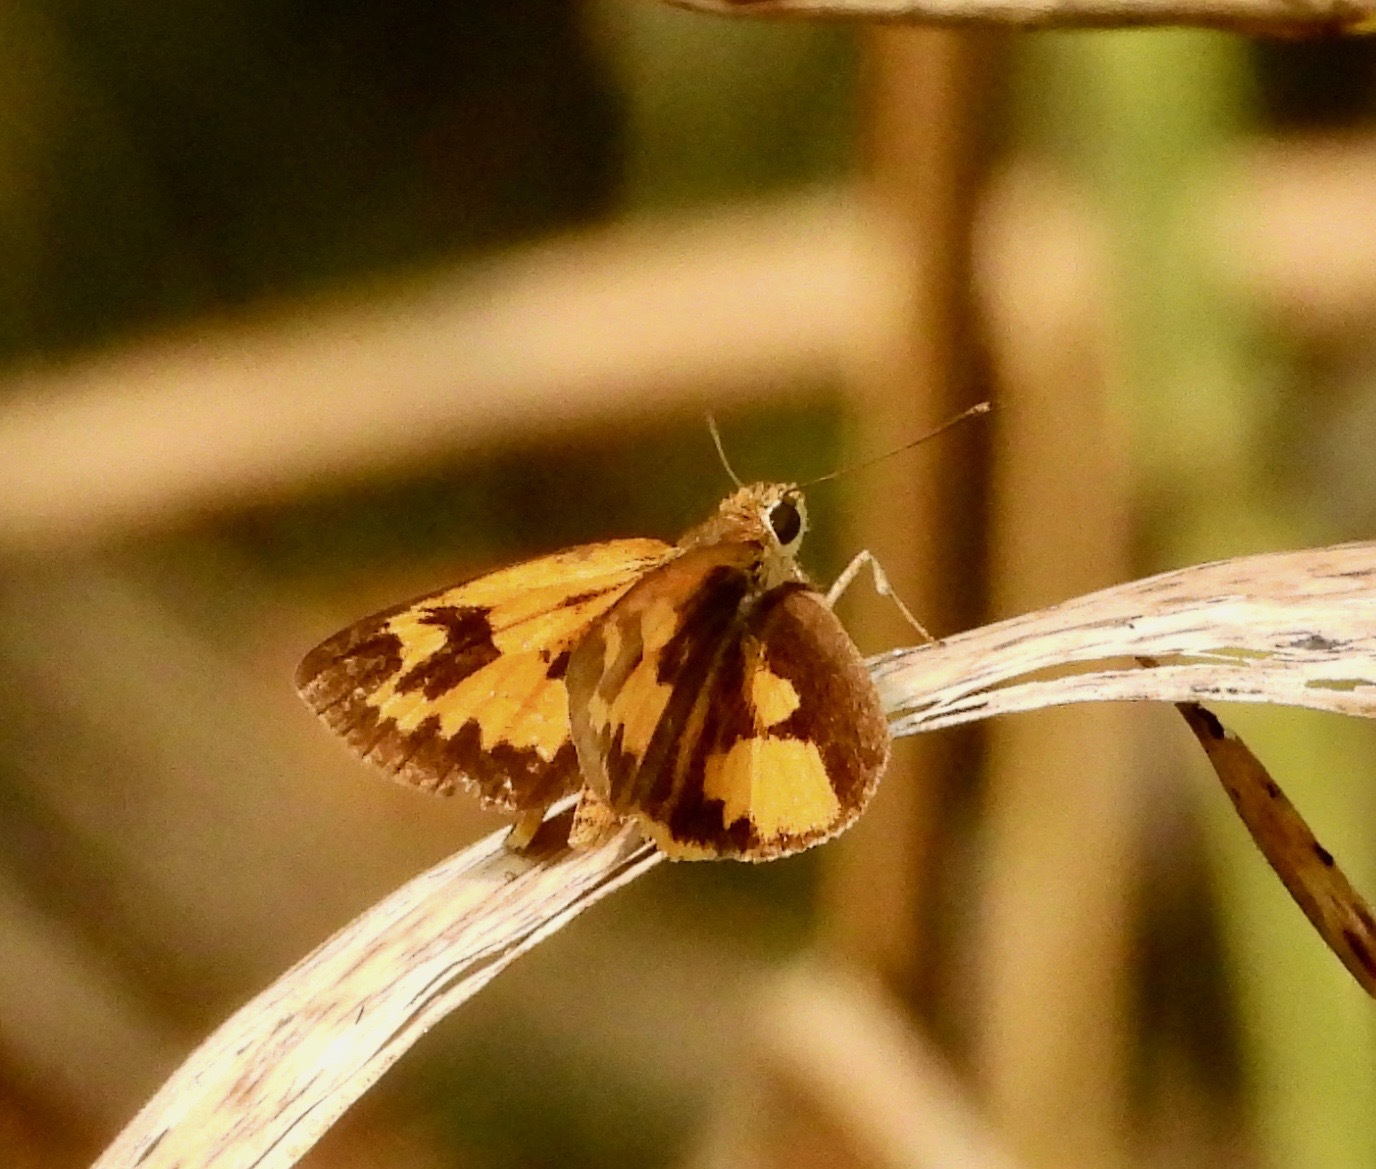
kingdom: Animalia
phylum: Arthropoda
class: Insecta
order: Lepidoptera
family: Hesperiidae
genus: Pardaleodes
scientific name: Pardaleodes incerta
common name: Savanna pathfinder
